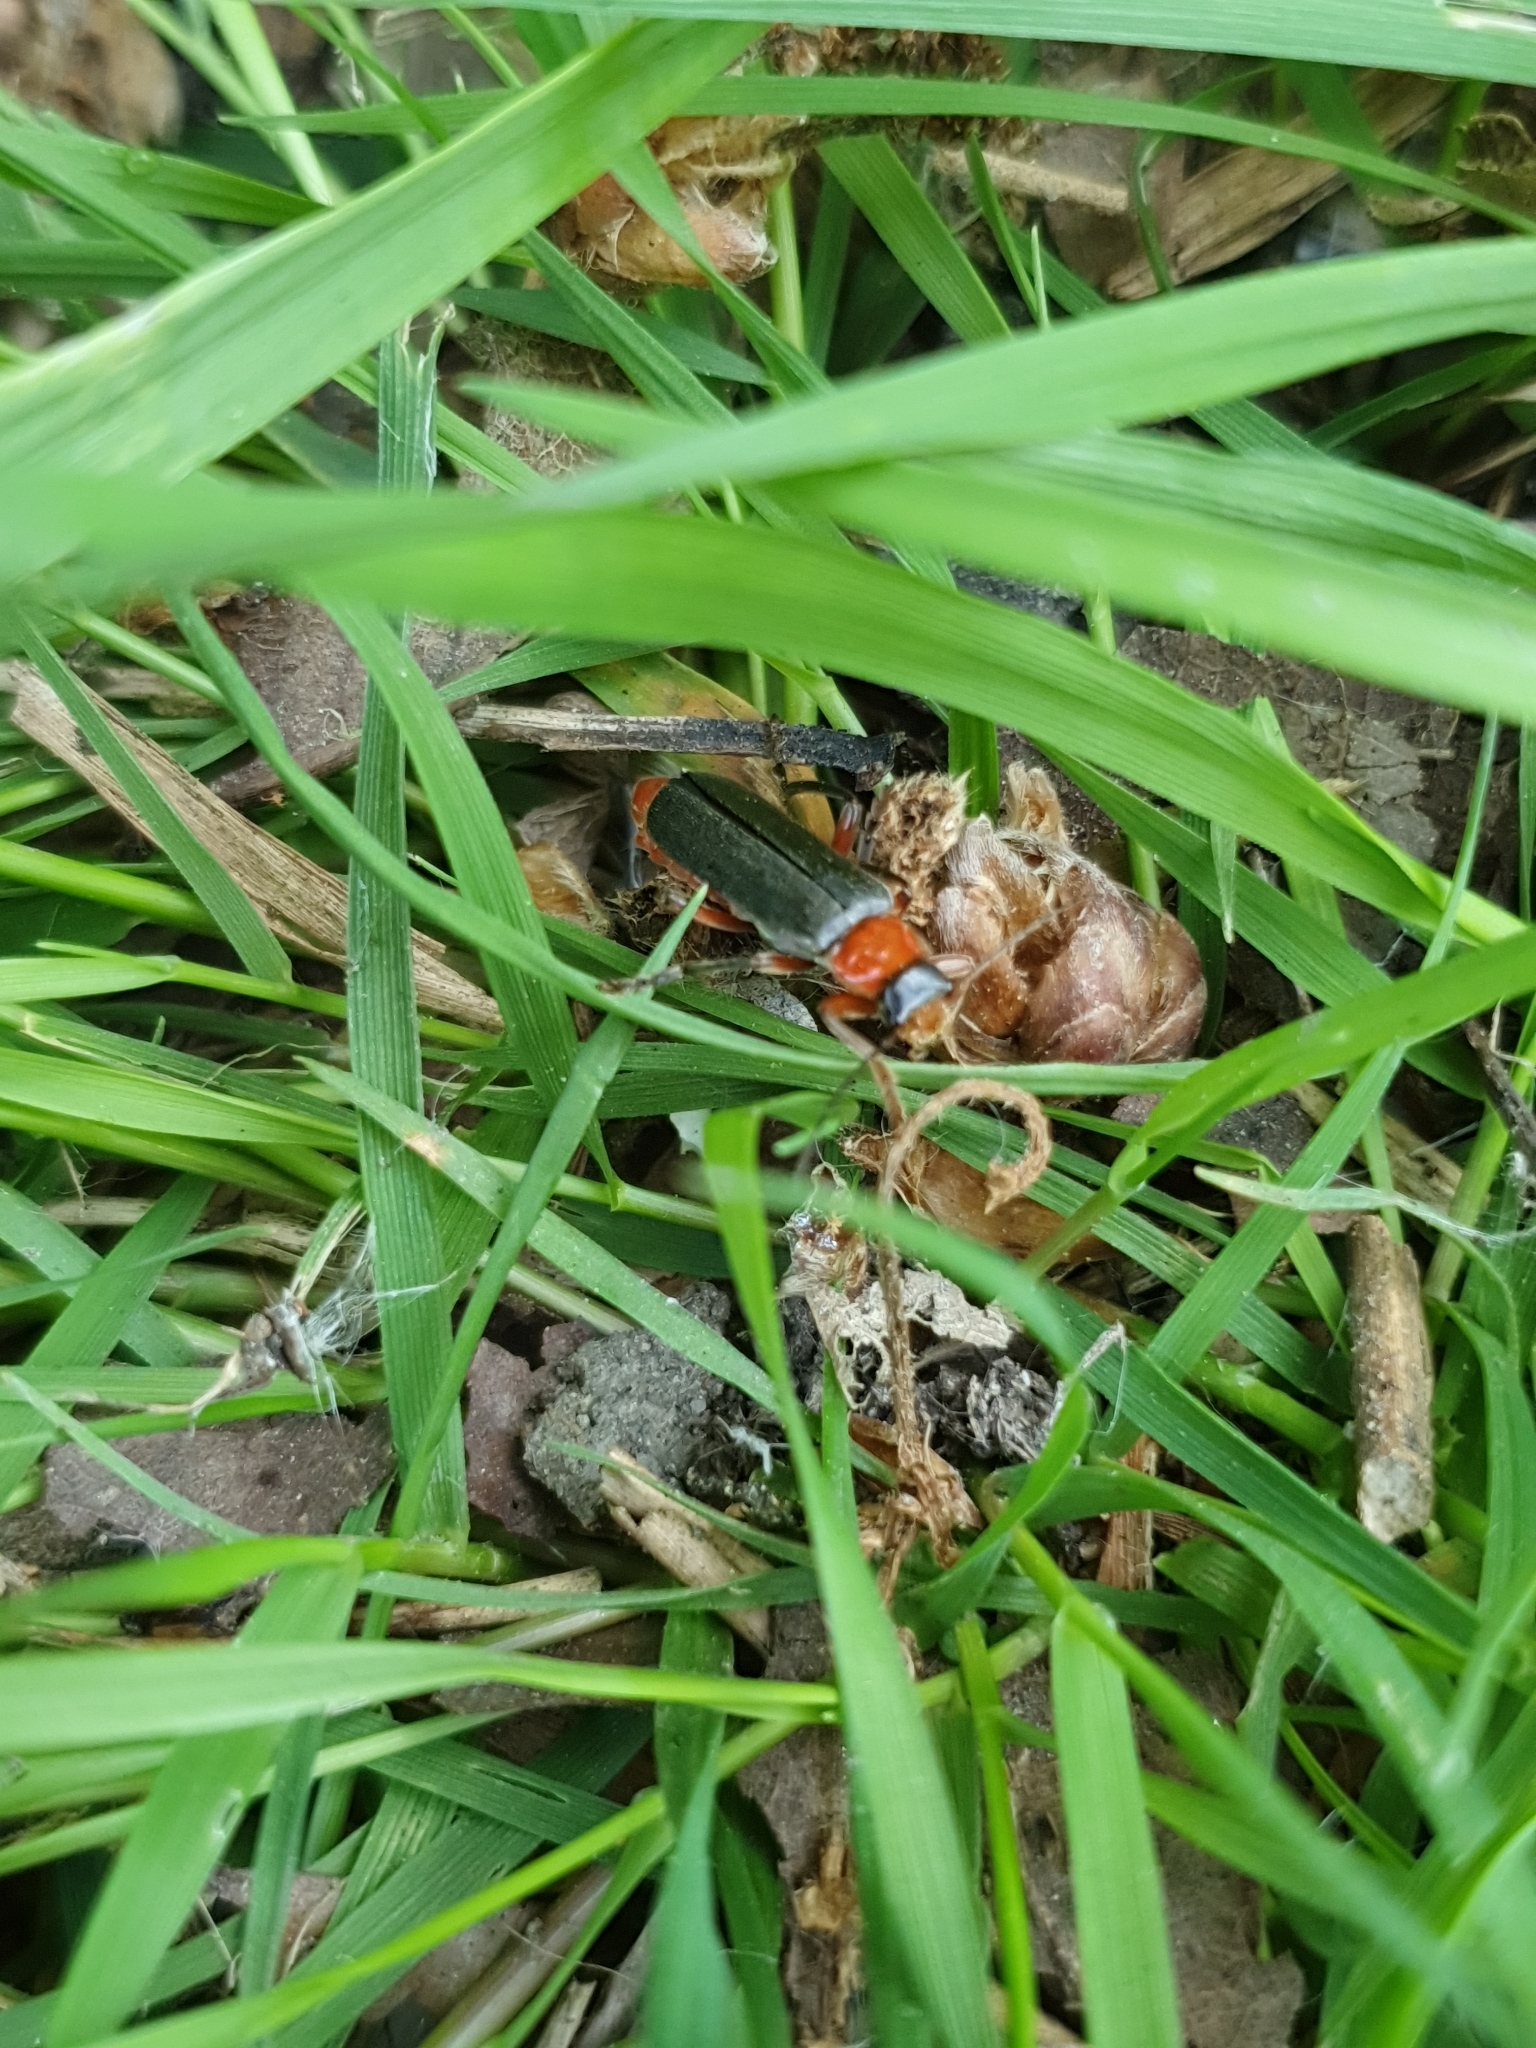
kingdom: Animalia
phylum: Arthropoda
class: Insecta
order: Coleoptera
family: Cantharidae
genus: Cantharis
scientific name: Cantharis pellucida
